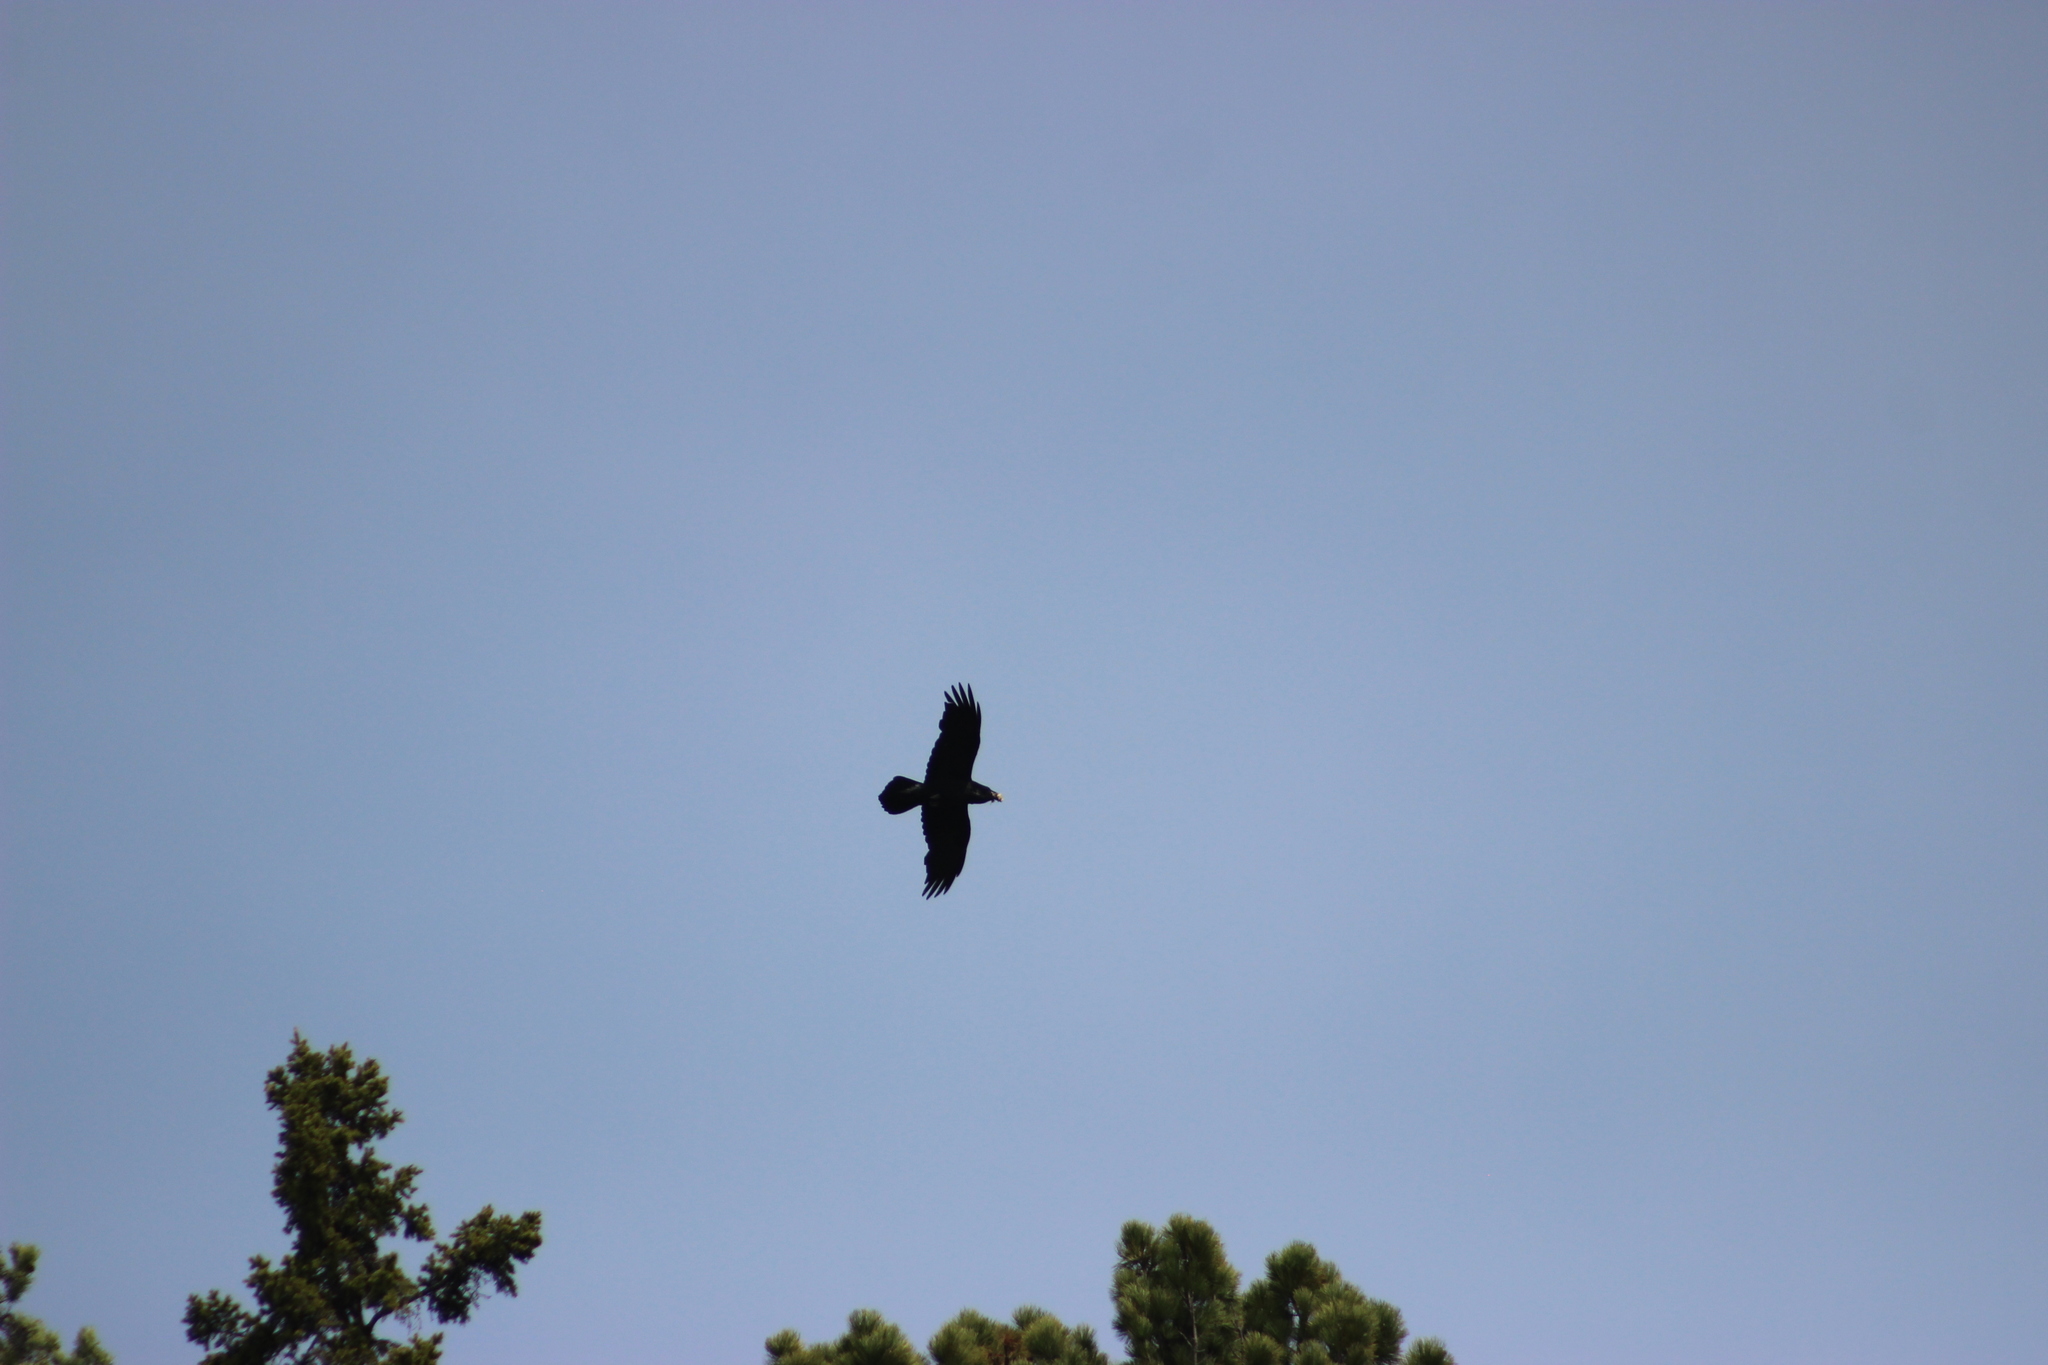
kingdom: Animalia
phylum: Chordata
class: Aves
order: Passeriformes
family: Corvidae
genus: Corvus
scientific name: Corvus corax
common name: Common raven
